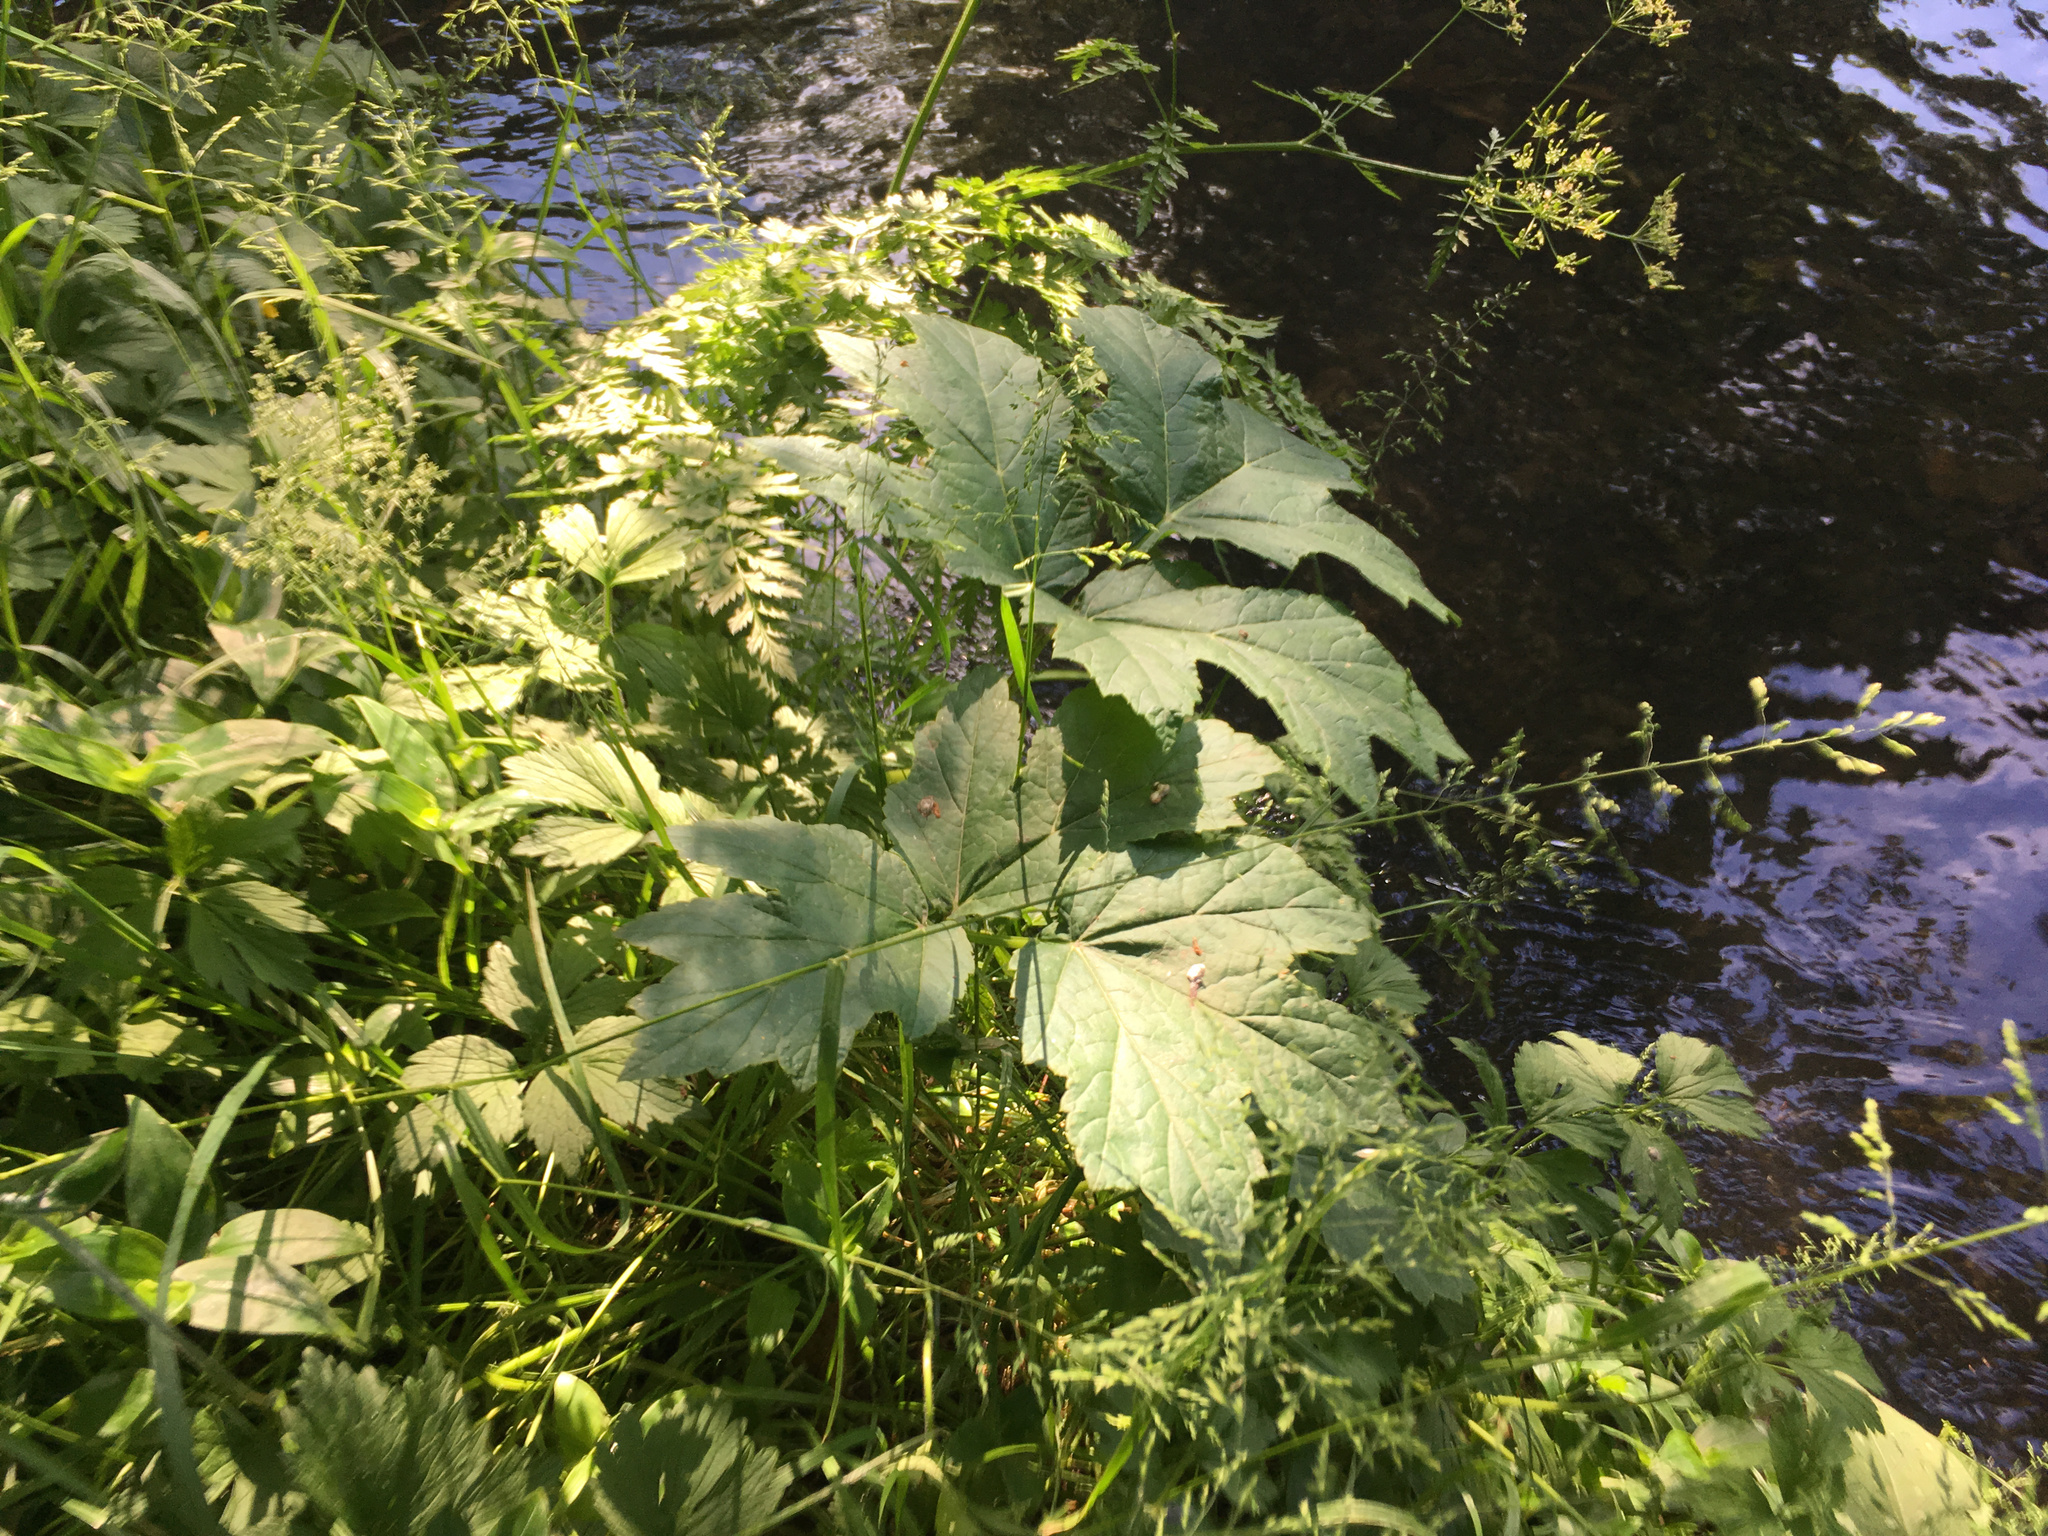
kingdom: Plantae
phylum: Tracheophyta
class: Magnoliopsida
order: Apiales
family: Apiaceae
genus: Heracleum
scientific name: Heracleum mantegazzianum
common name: Giant hogweed
